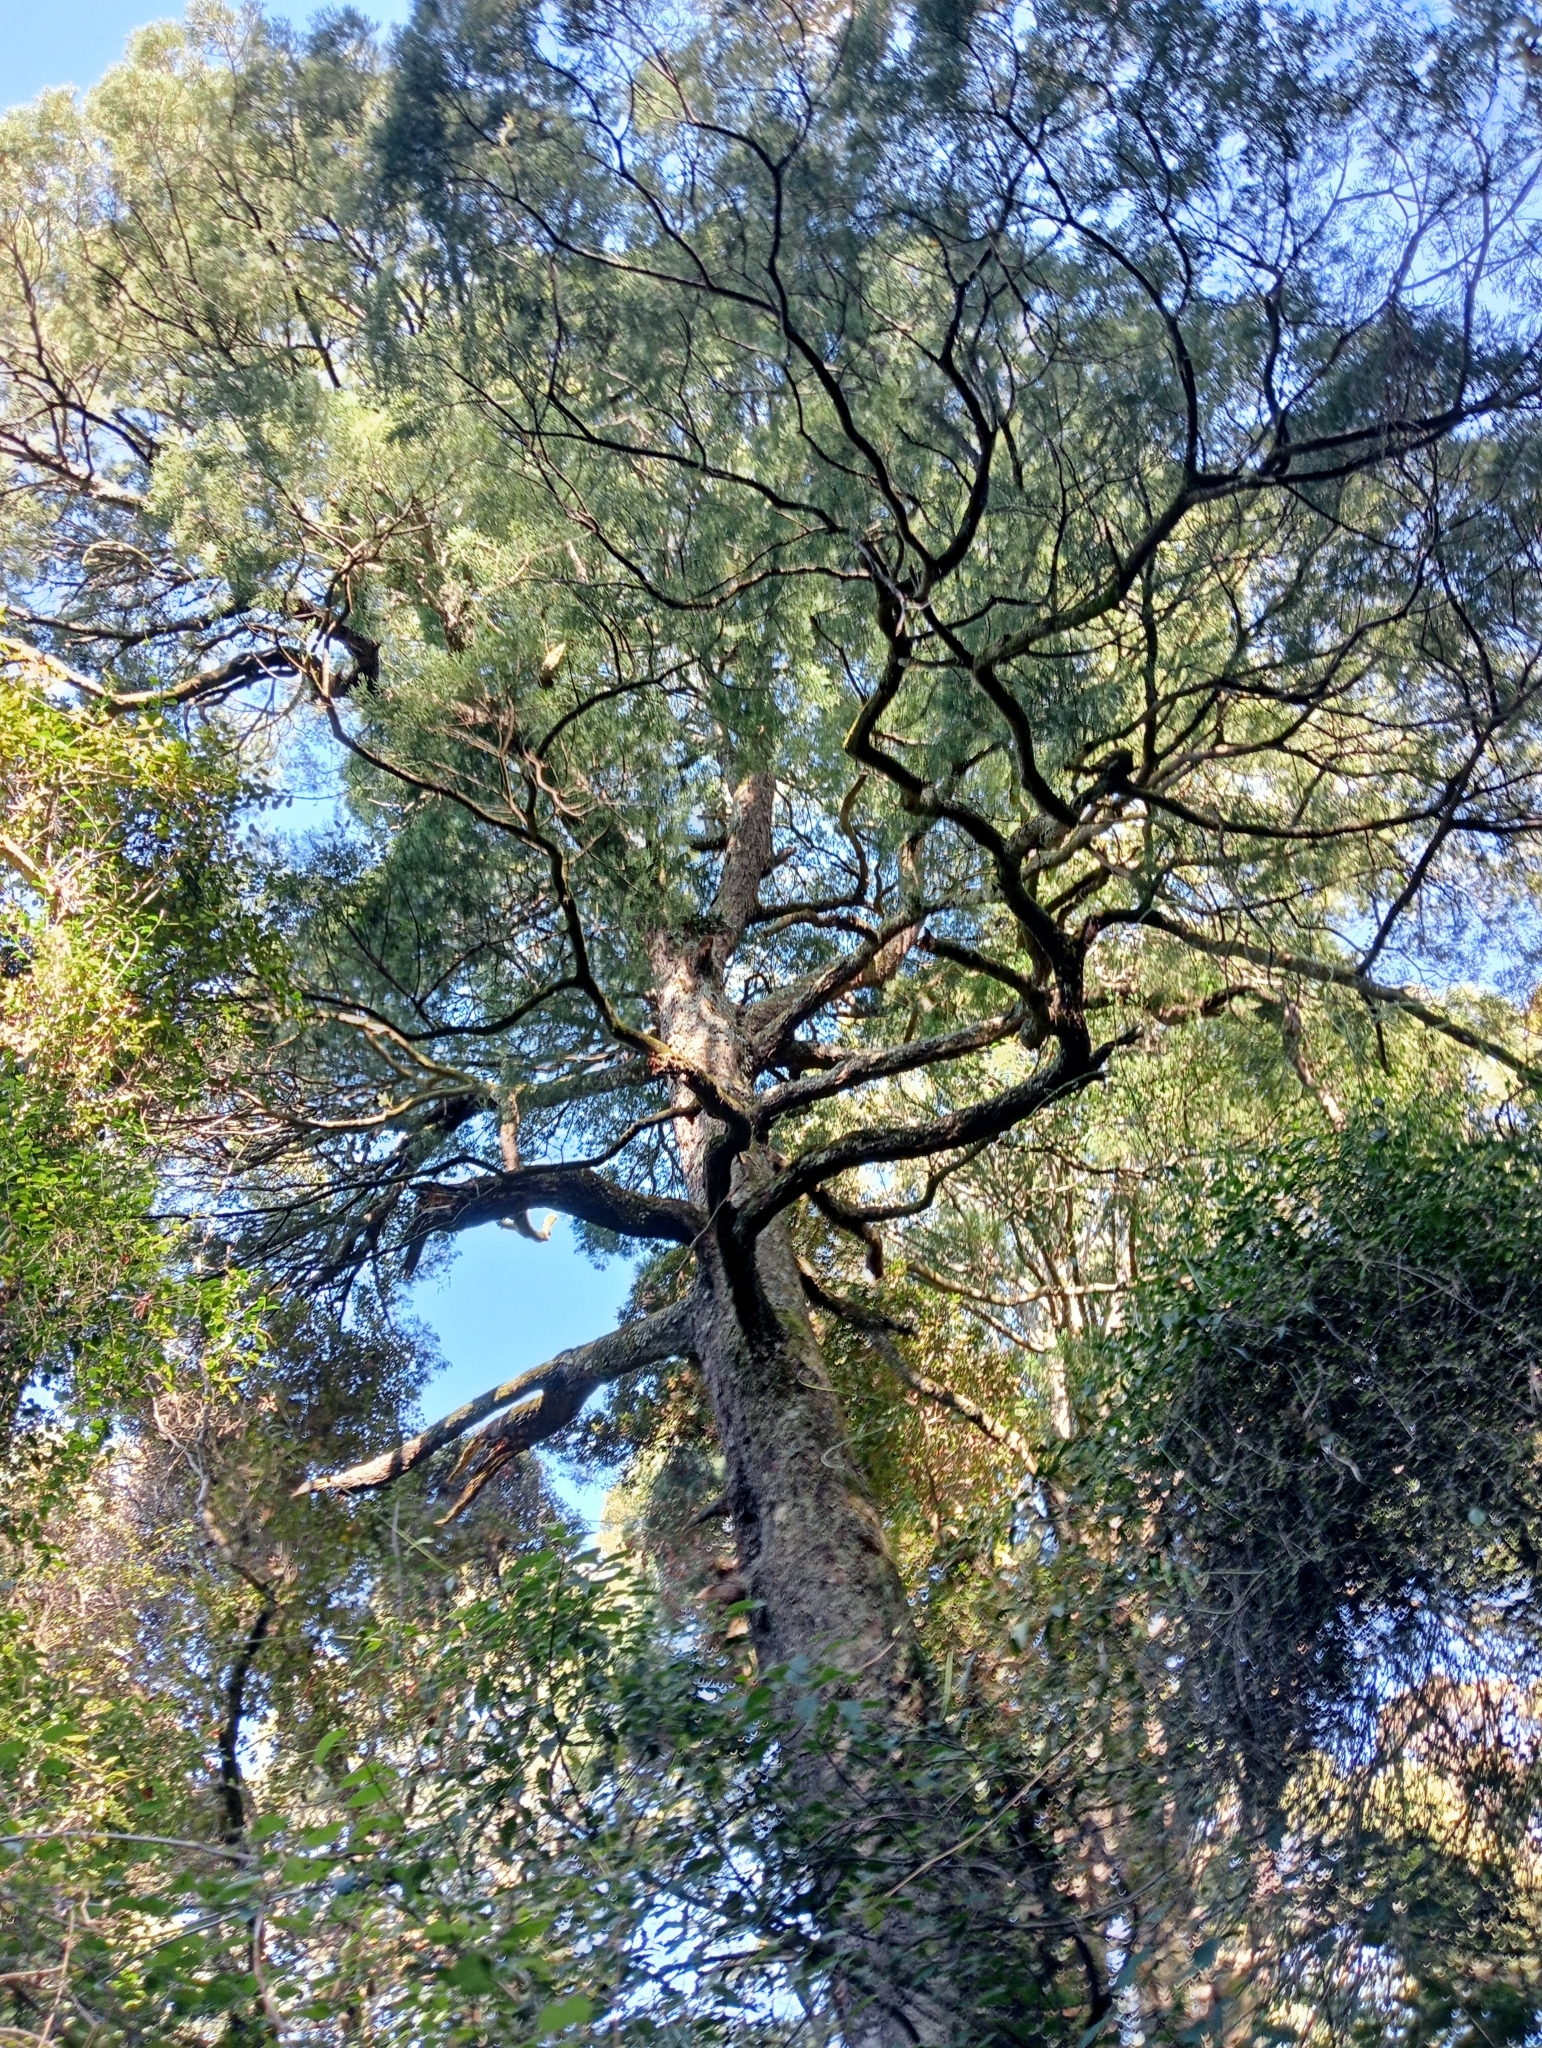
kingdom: Plantae
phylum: Tracheophyta
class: Pinopsida
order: Pinales
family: Podocarpaceae
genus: Dacrycarpus
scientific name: Dacrycarpus dacrydioides
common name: White pine
